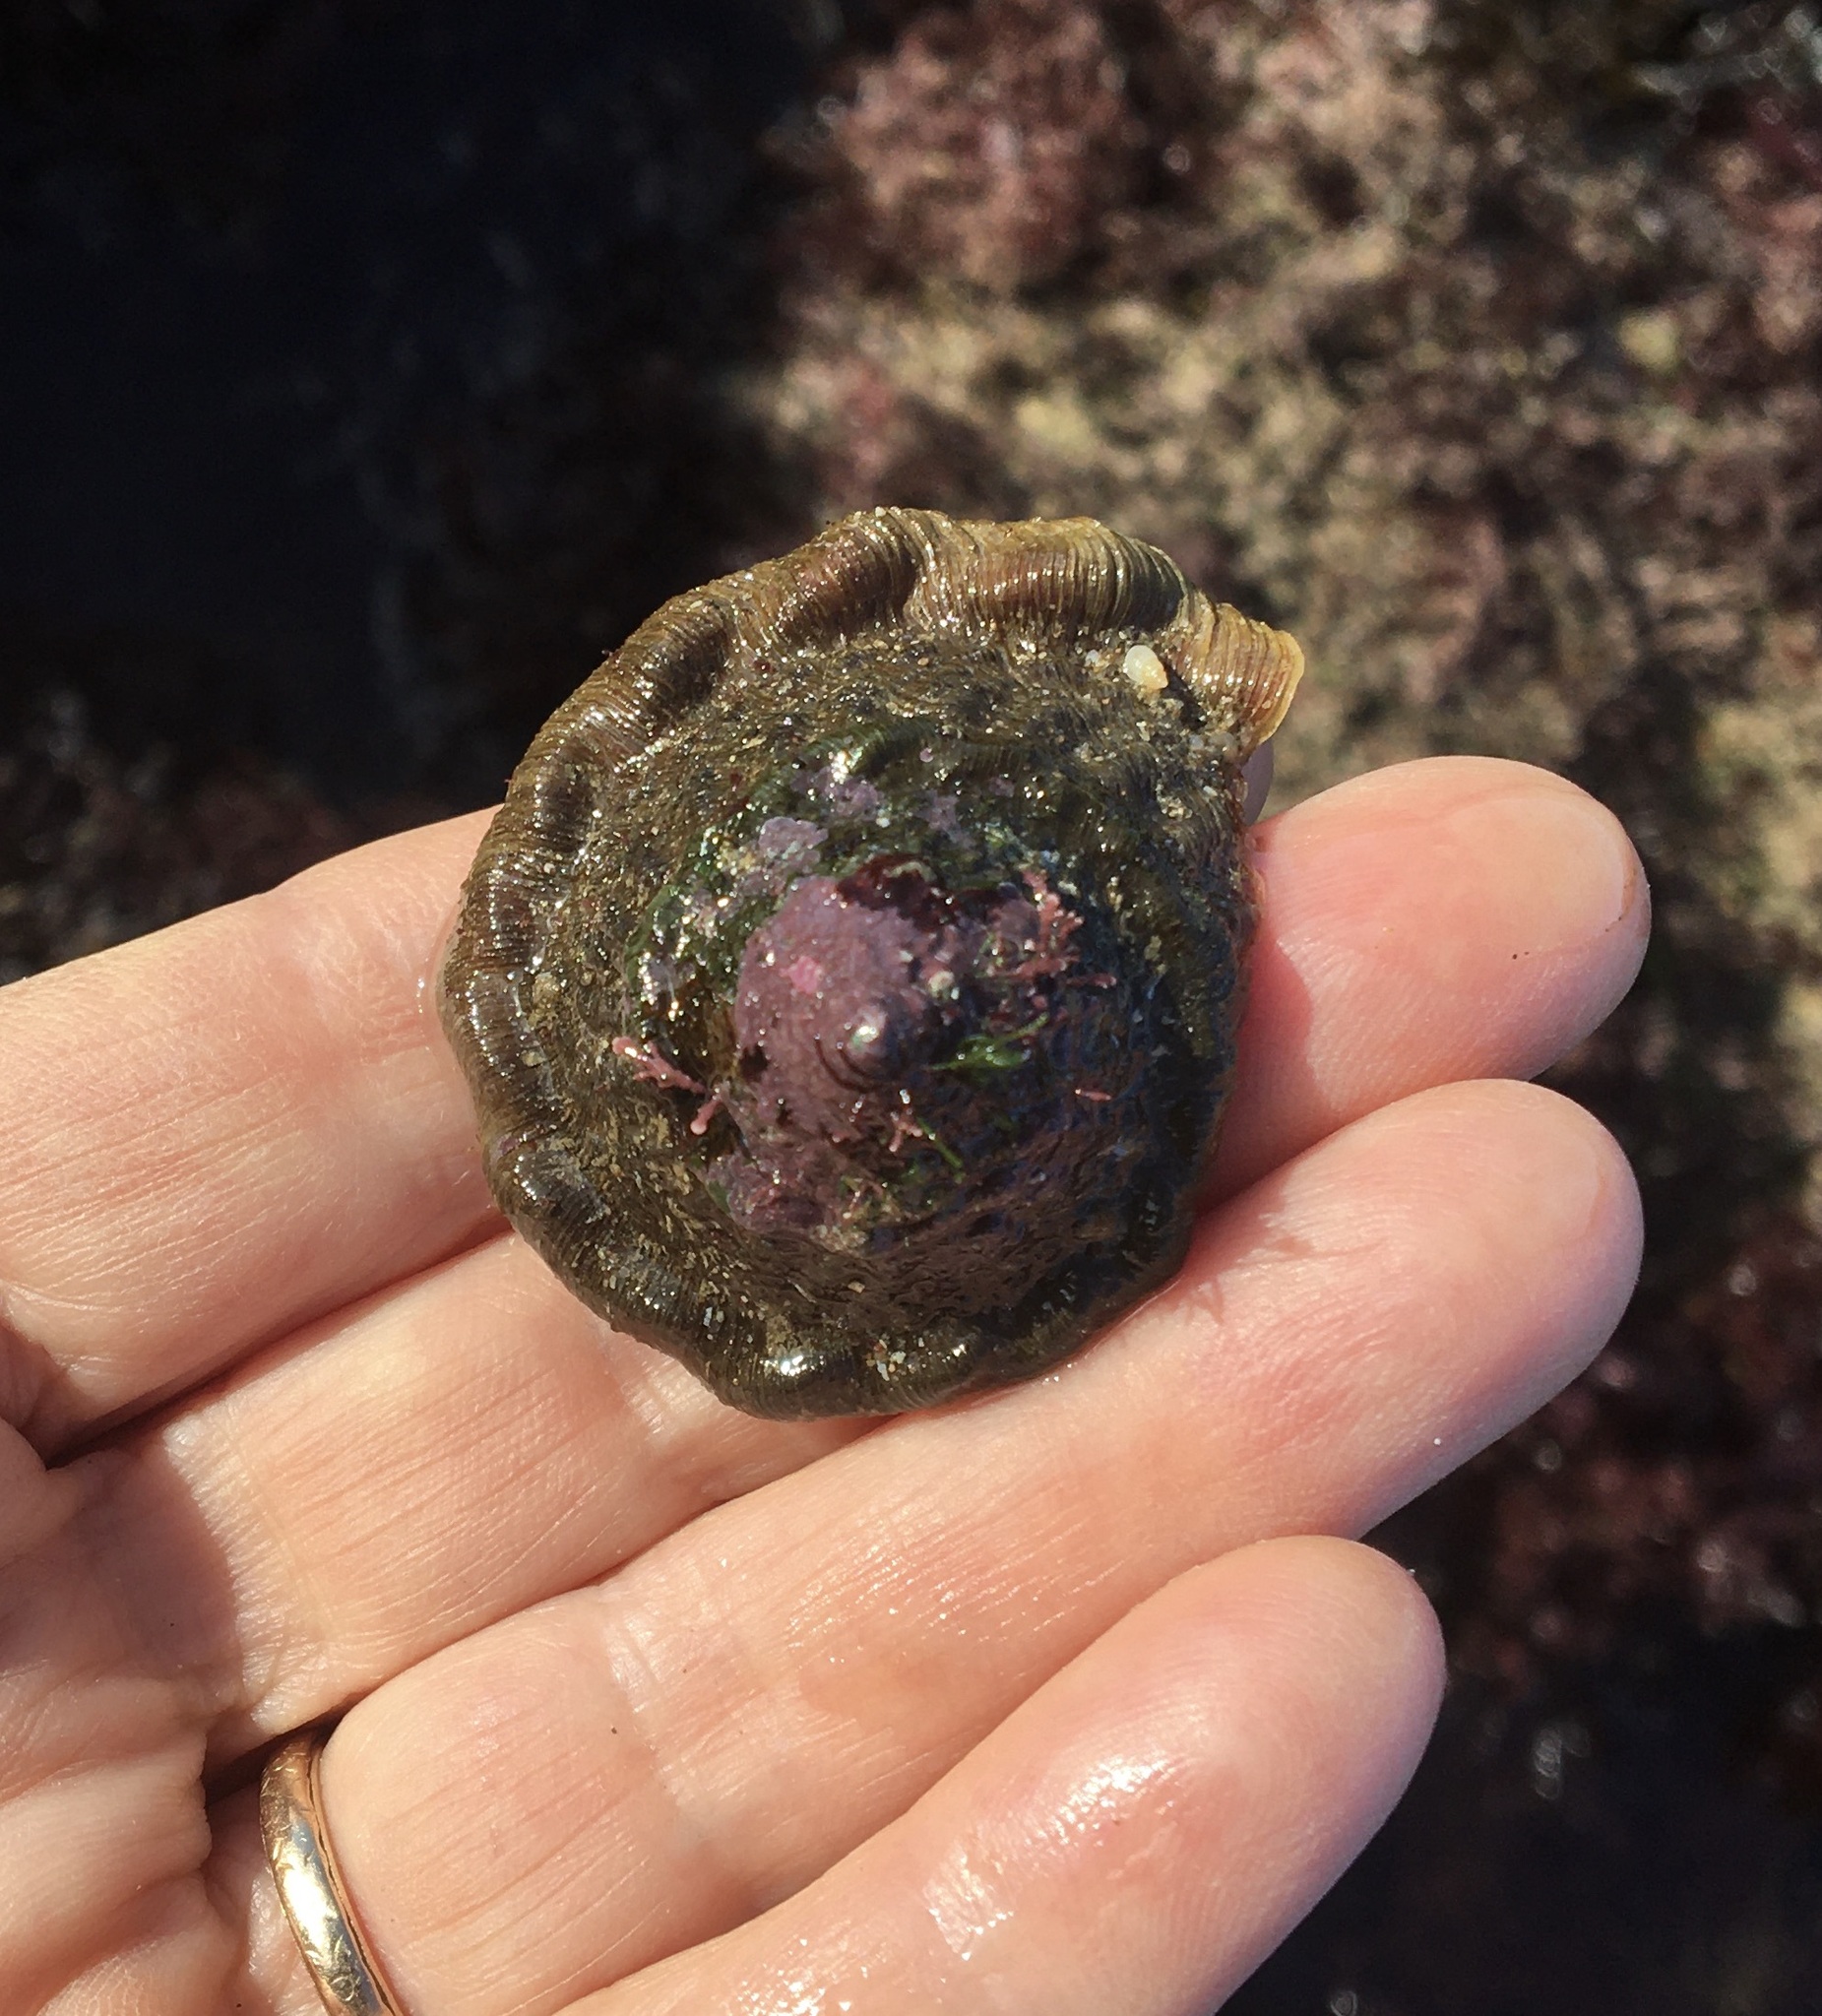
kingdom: Animalia
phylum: Mollusca
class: Gastropoda
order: Trochida
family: Turbinidae
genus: Megastraea
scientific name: Megastraea undosa
